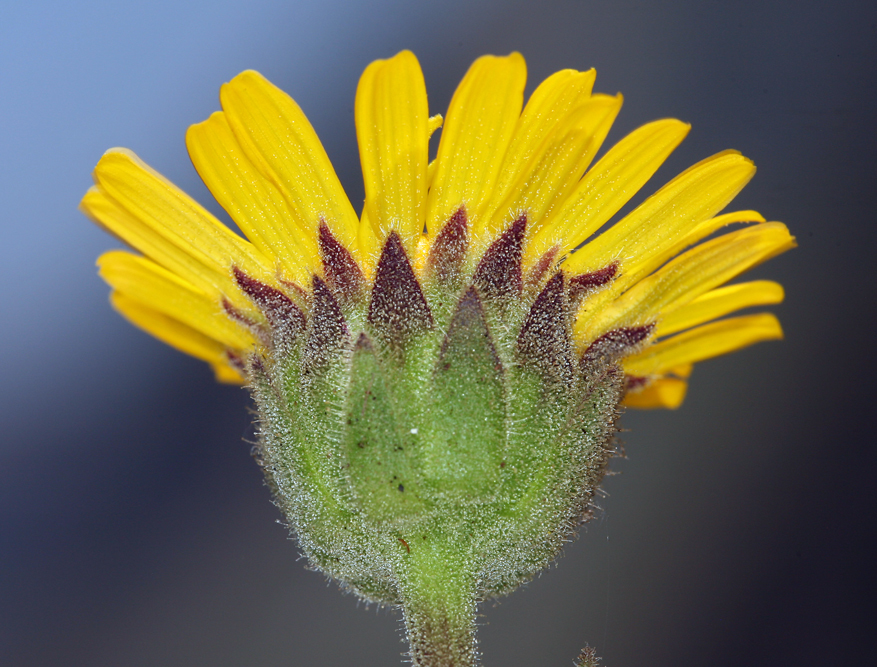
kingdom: Plantae
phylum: Tracheophyta
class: Magnoliopsida
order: Asterales
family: Asteraceae
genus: Hulsea
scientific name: Hulsea vestita
